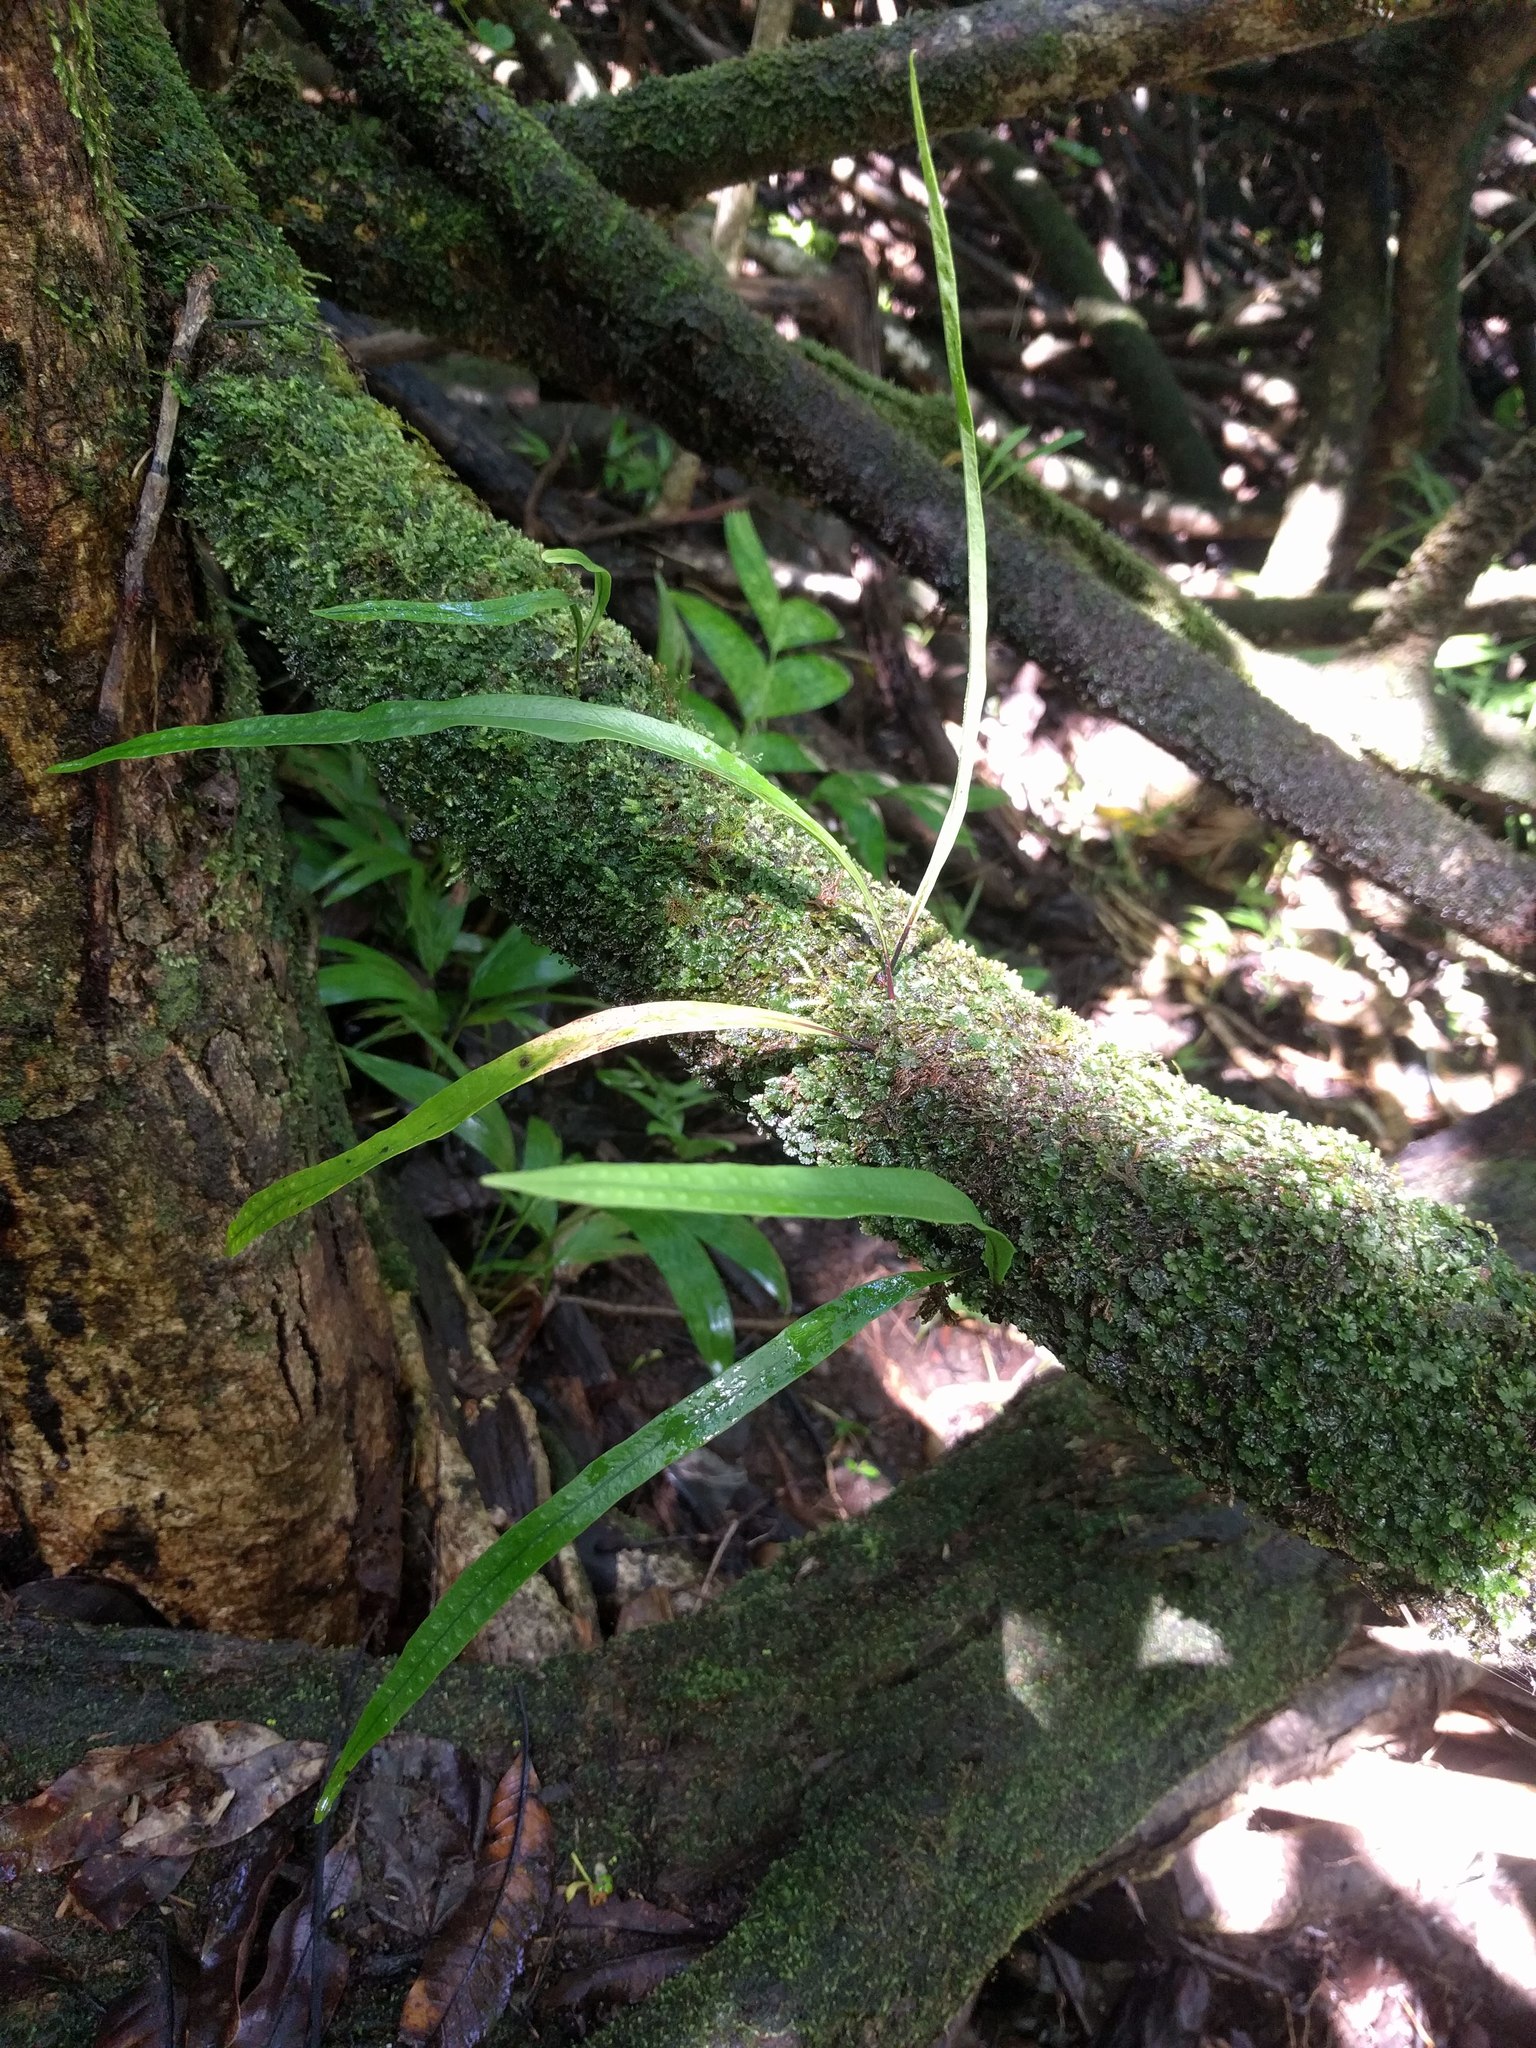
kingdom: Plantae
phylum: Tracheophyta
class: Polypodiopsida
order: Polypodiales
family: Polypodiaceae
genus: Lepisorus
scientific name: Lepisorus thunbergianus
